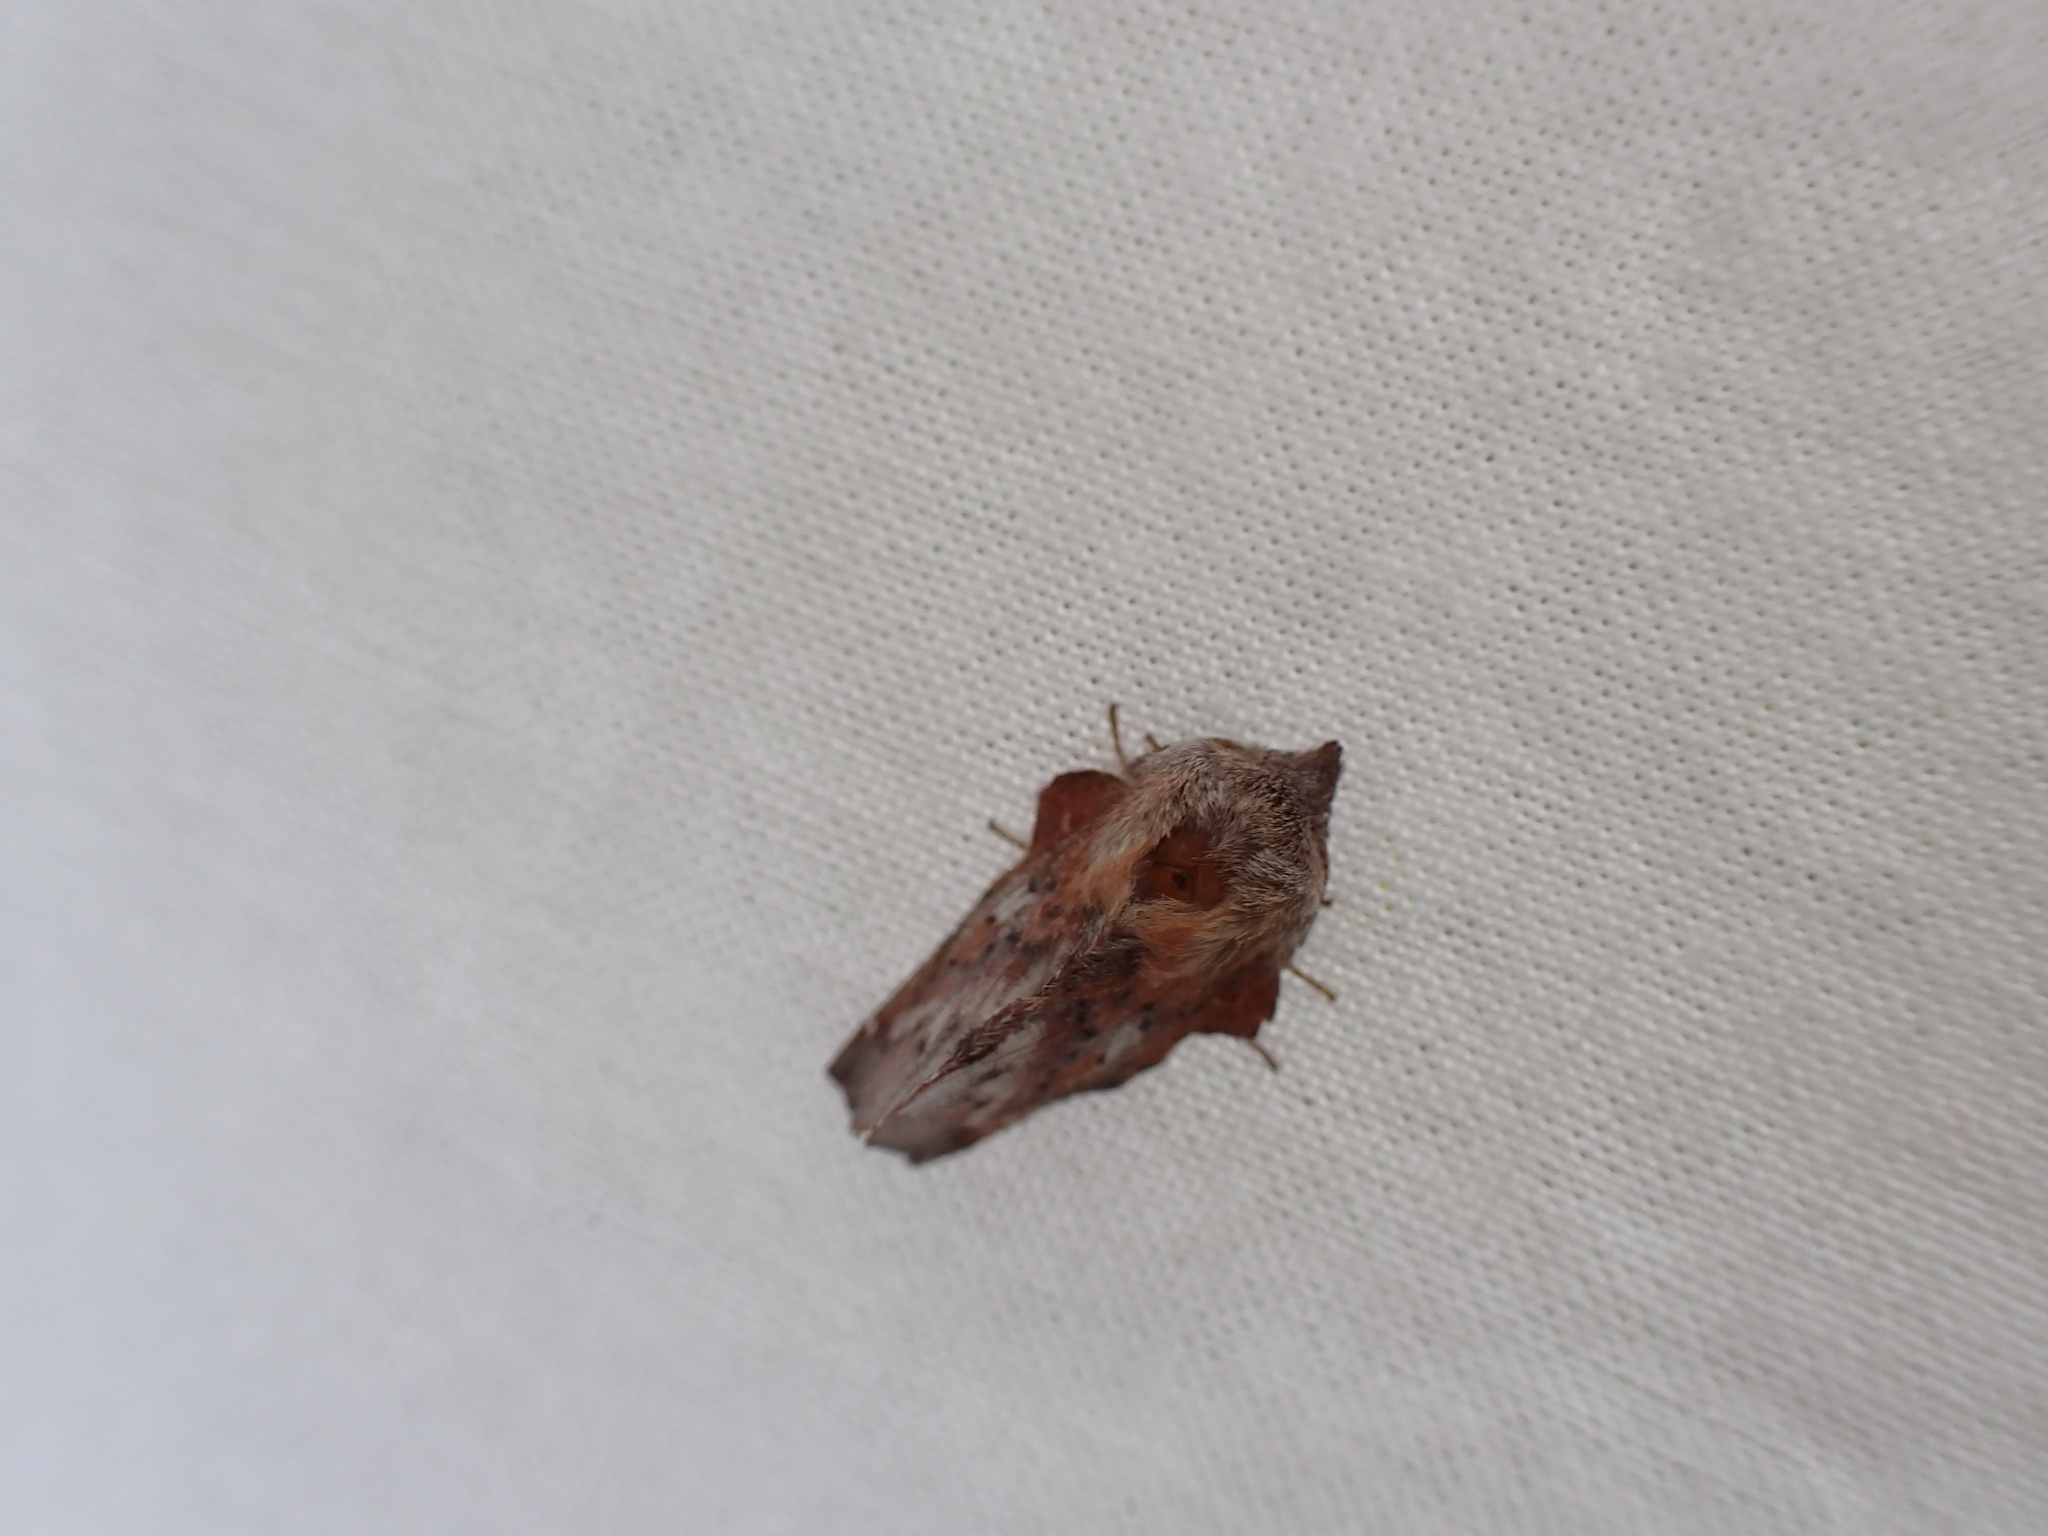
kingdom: Animalia
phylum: Arthropoda
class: Insecta
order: Lepidoptera
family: Lasiocampidae
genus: Phyllodesma
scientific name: Phyllodesma americana
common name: American lappet moth
